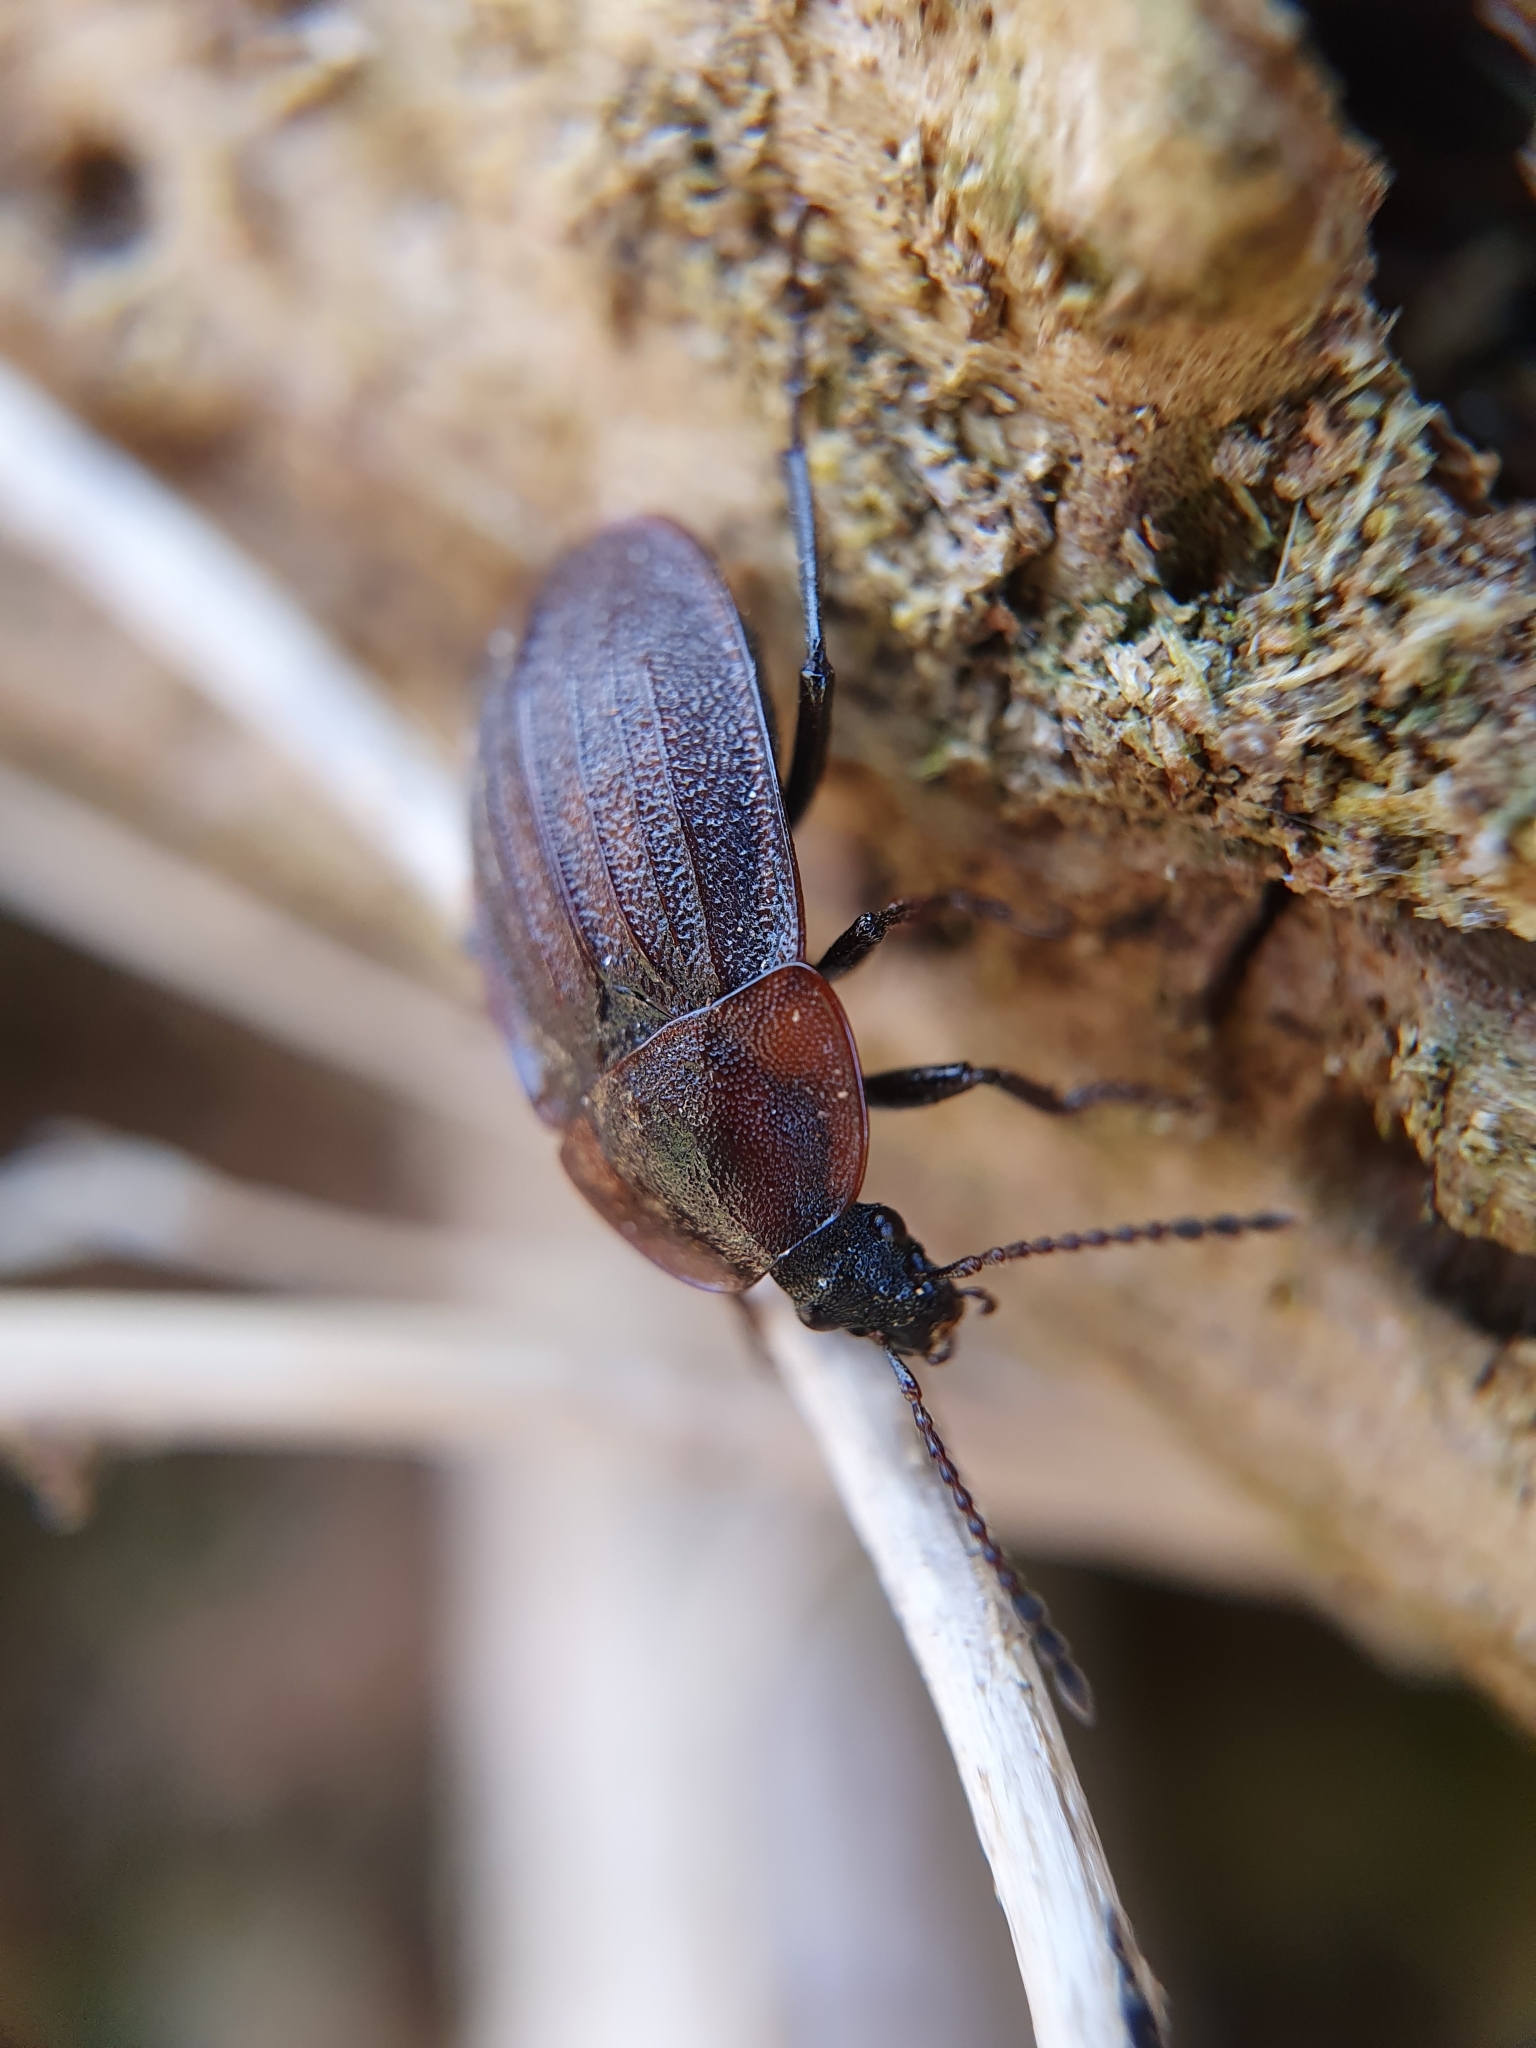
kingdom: Animalia
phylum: Arthropoda
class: Insecta
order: Coleoptera
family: Staphylinidae
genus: Silpha
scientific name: Silpha atrata
